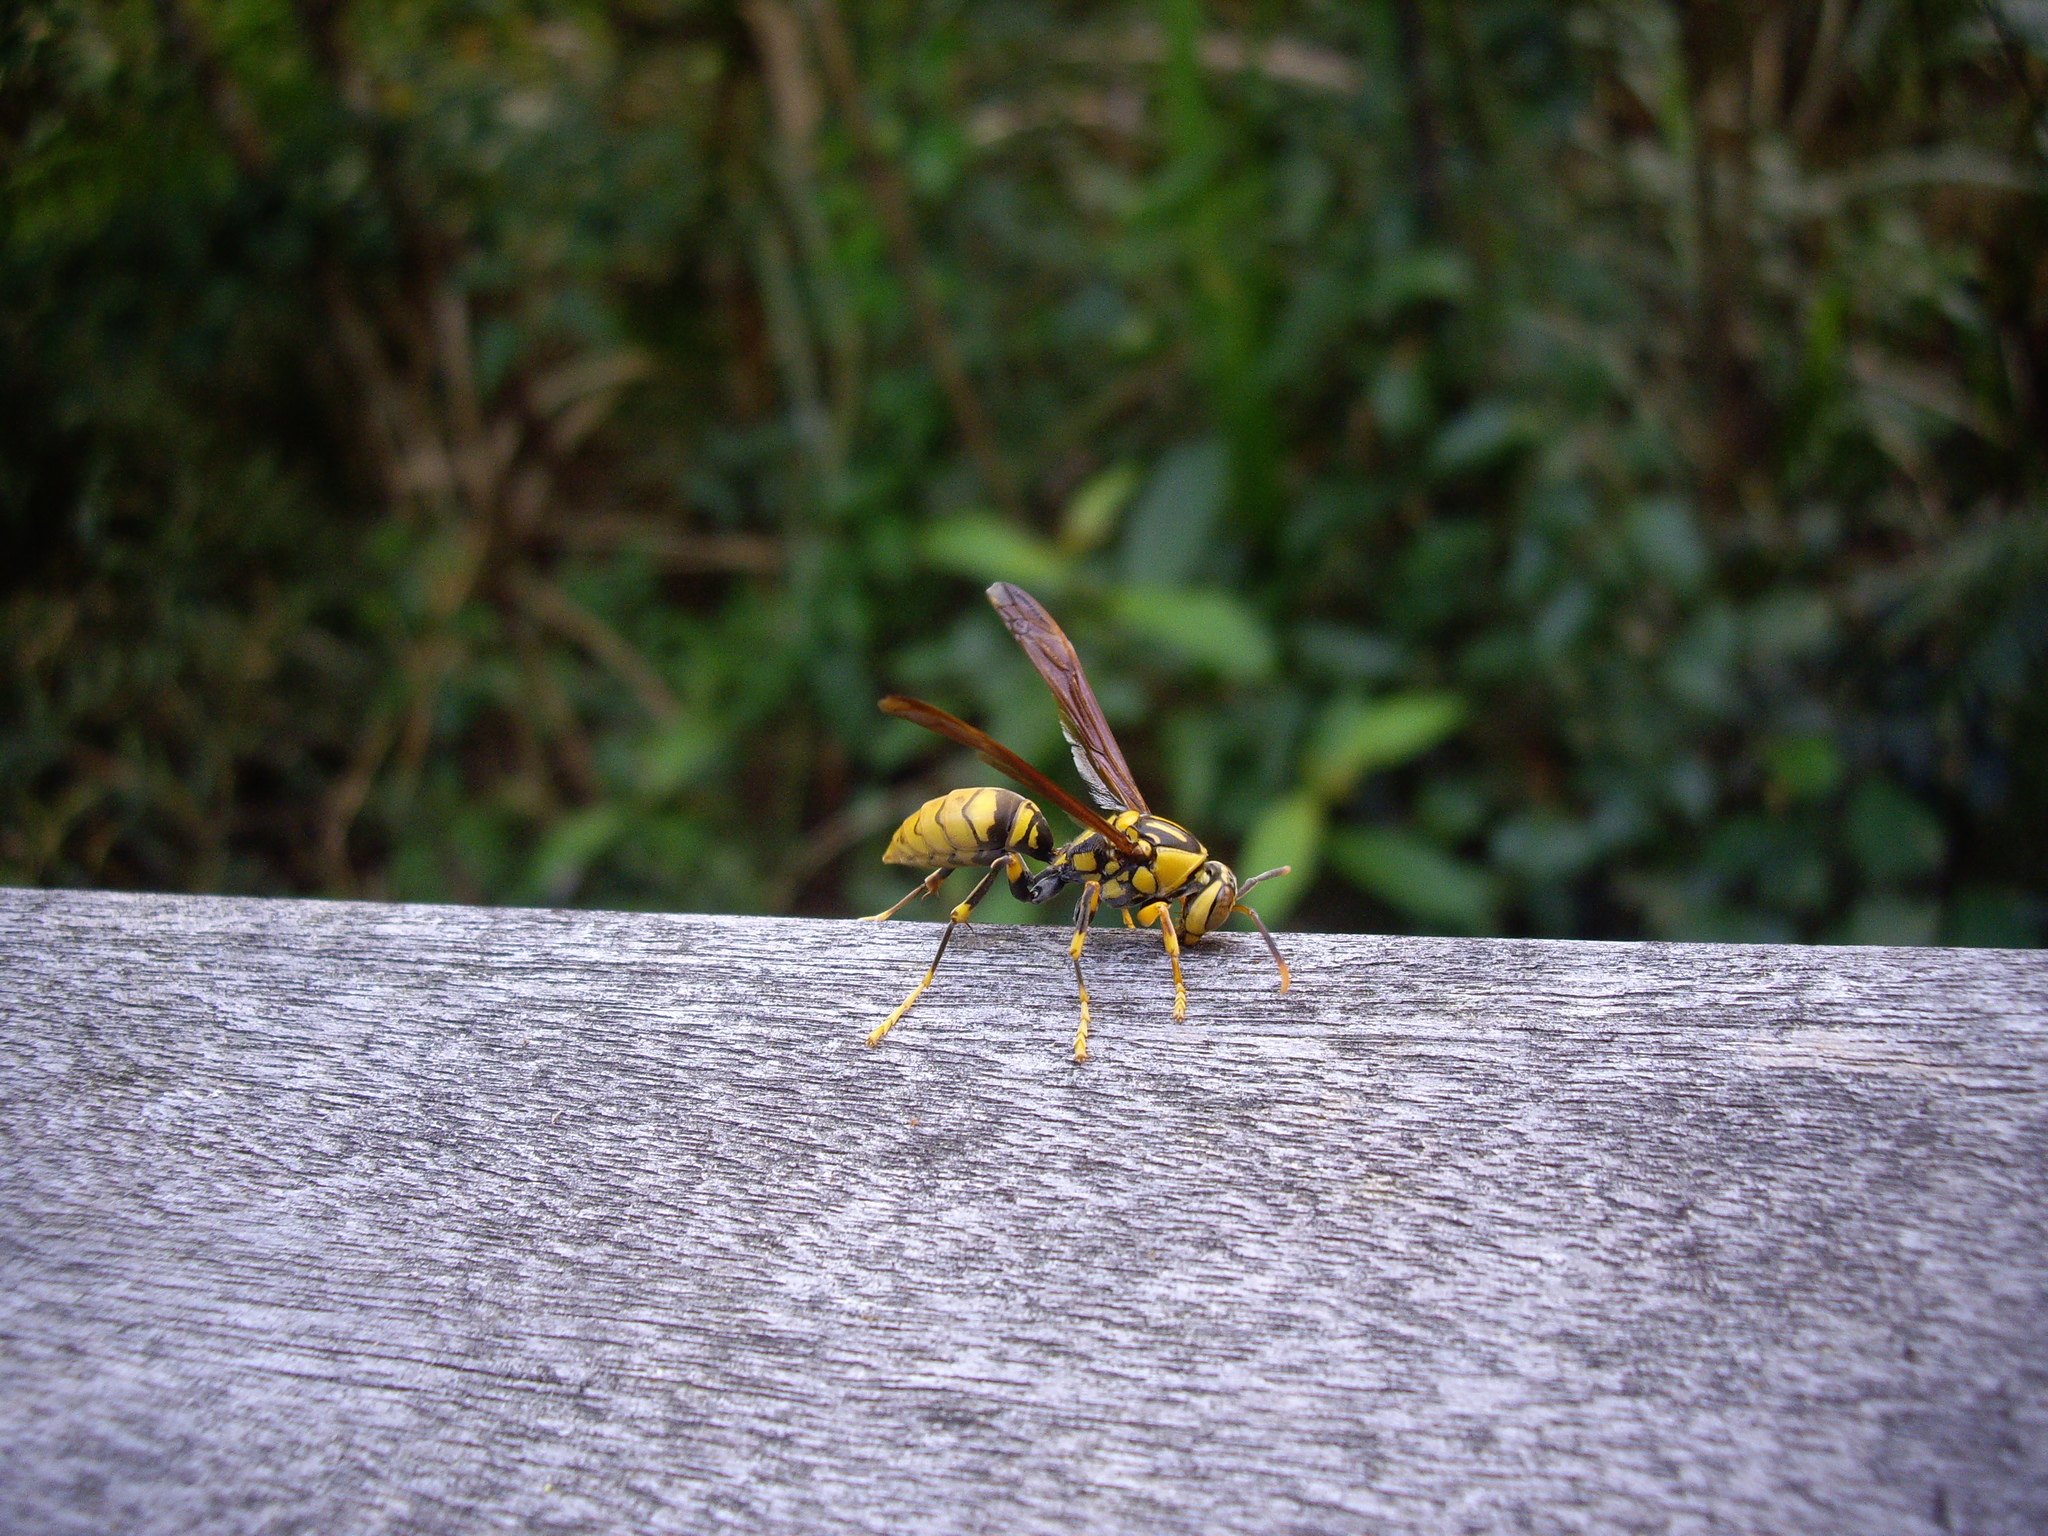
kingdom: Animalia
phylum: Arthropoda
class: Insecta
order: Hymenoptera
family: Eumenidae
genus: Polistes
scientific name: Polistes rothneyi
